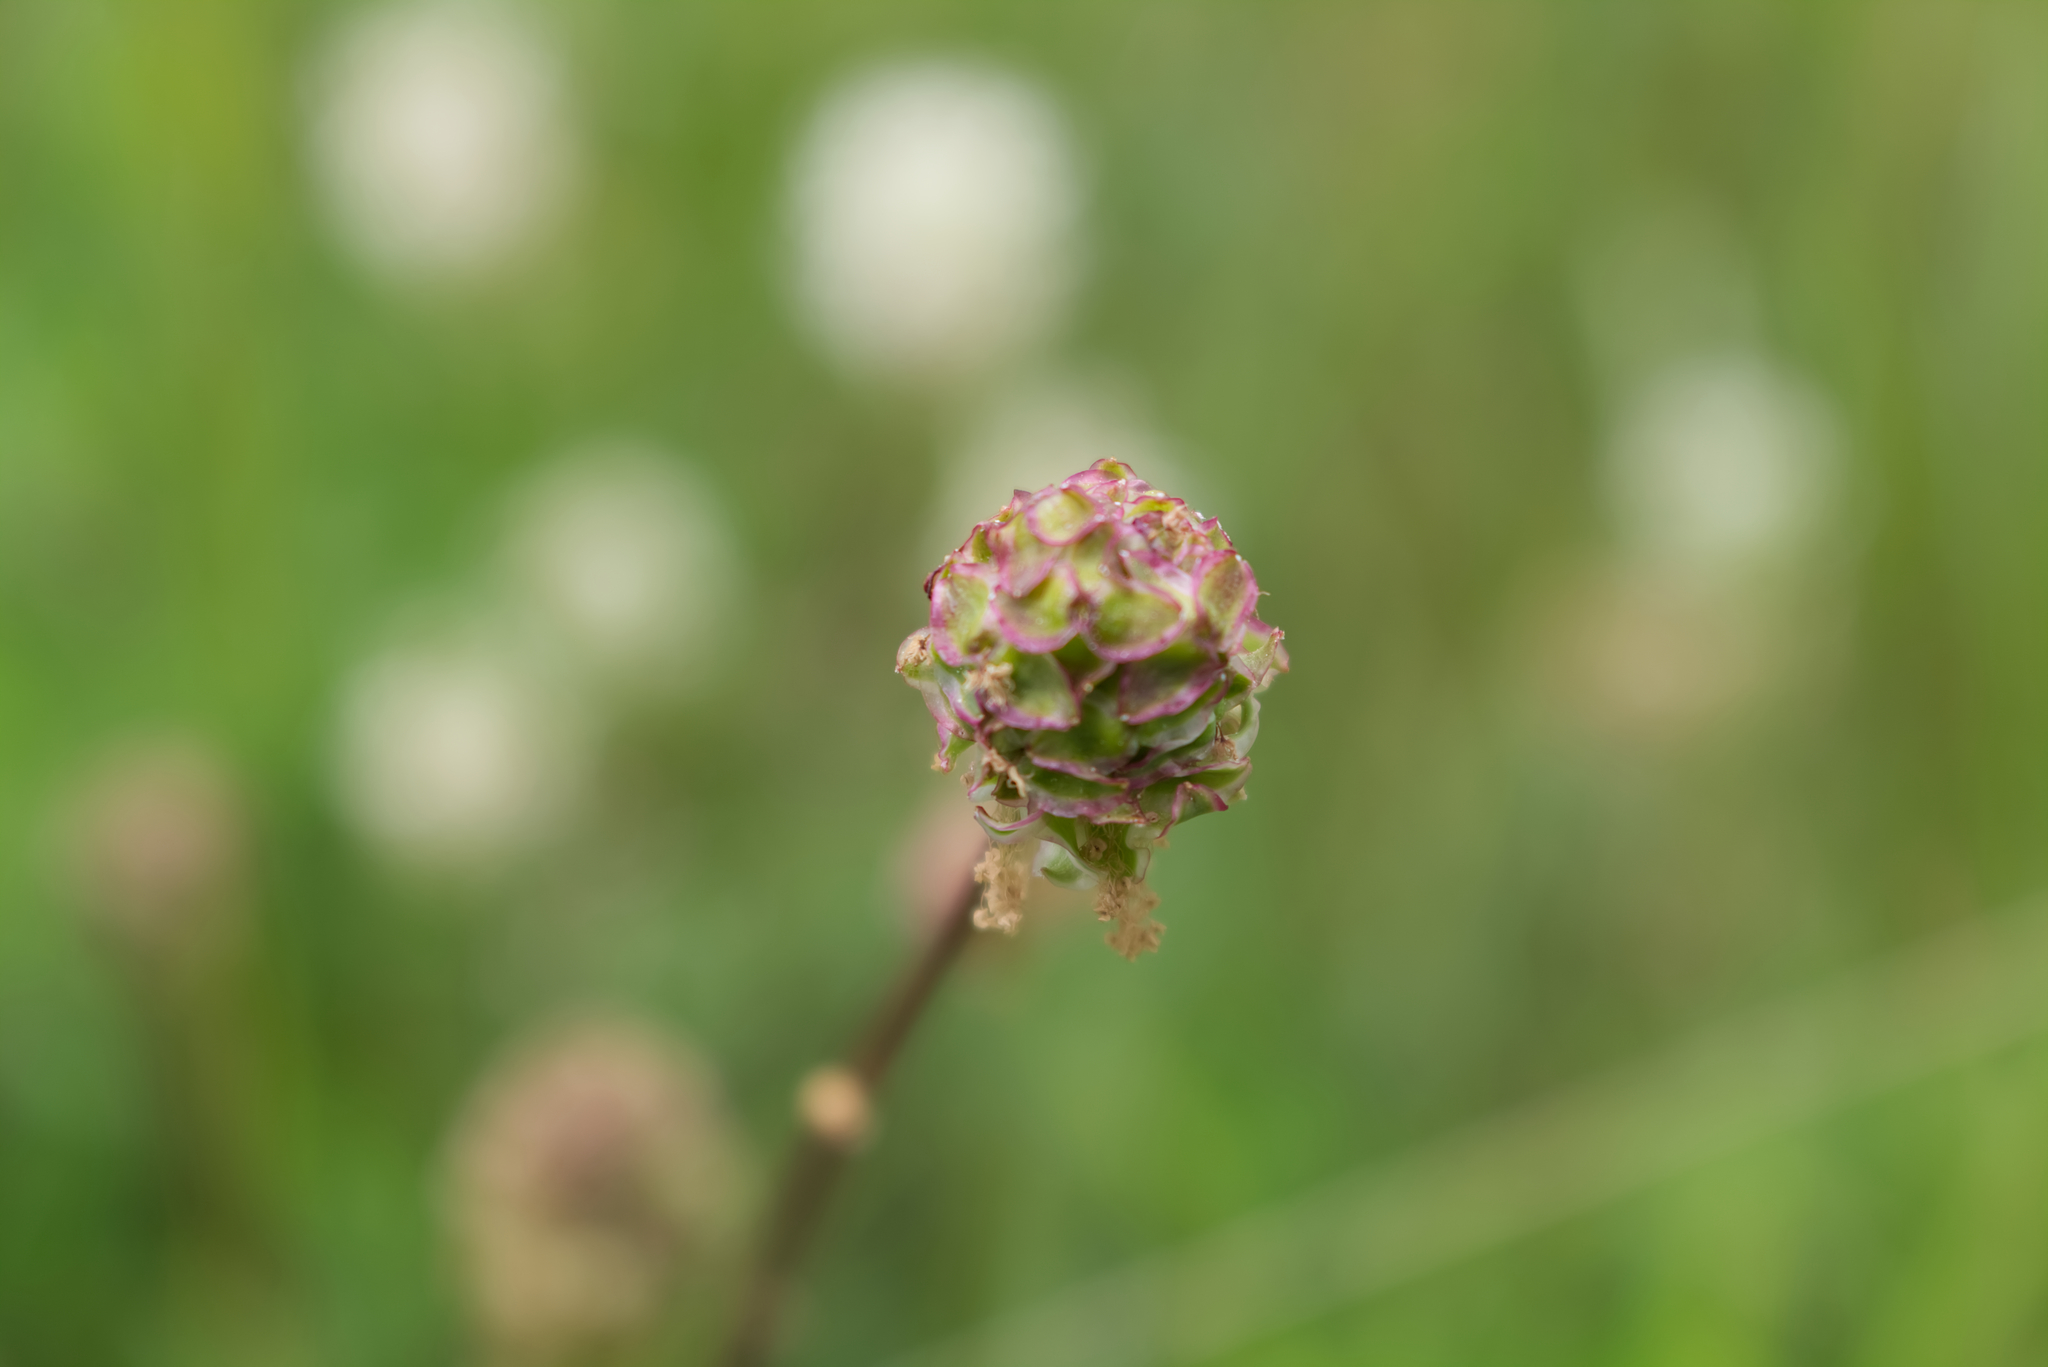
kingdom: Plantae
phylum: Tracheophyta
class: Magnoliopsida
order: Rosales
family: Rosaceae
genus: Poterium
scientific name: Poterium sanguisorba
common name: Salad burnet
